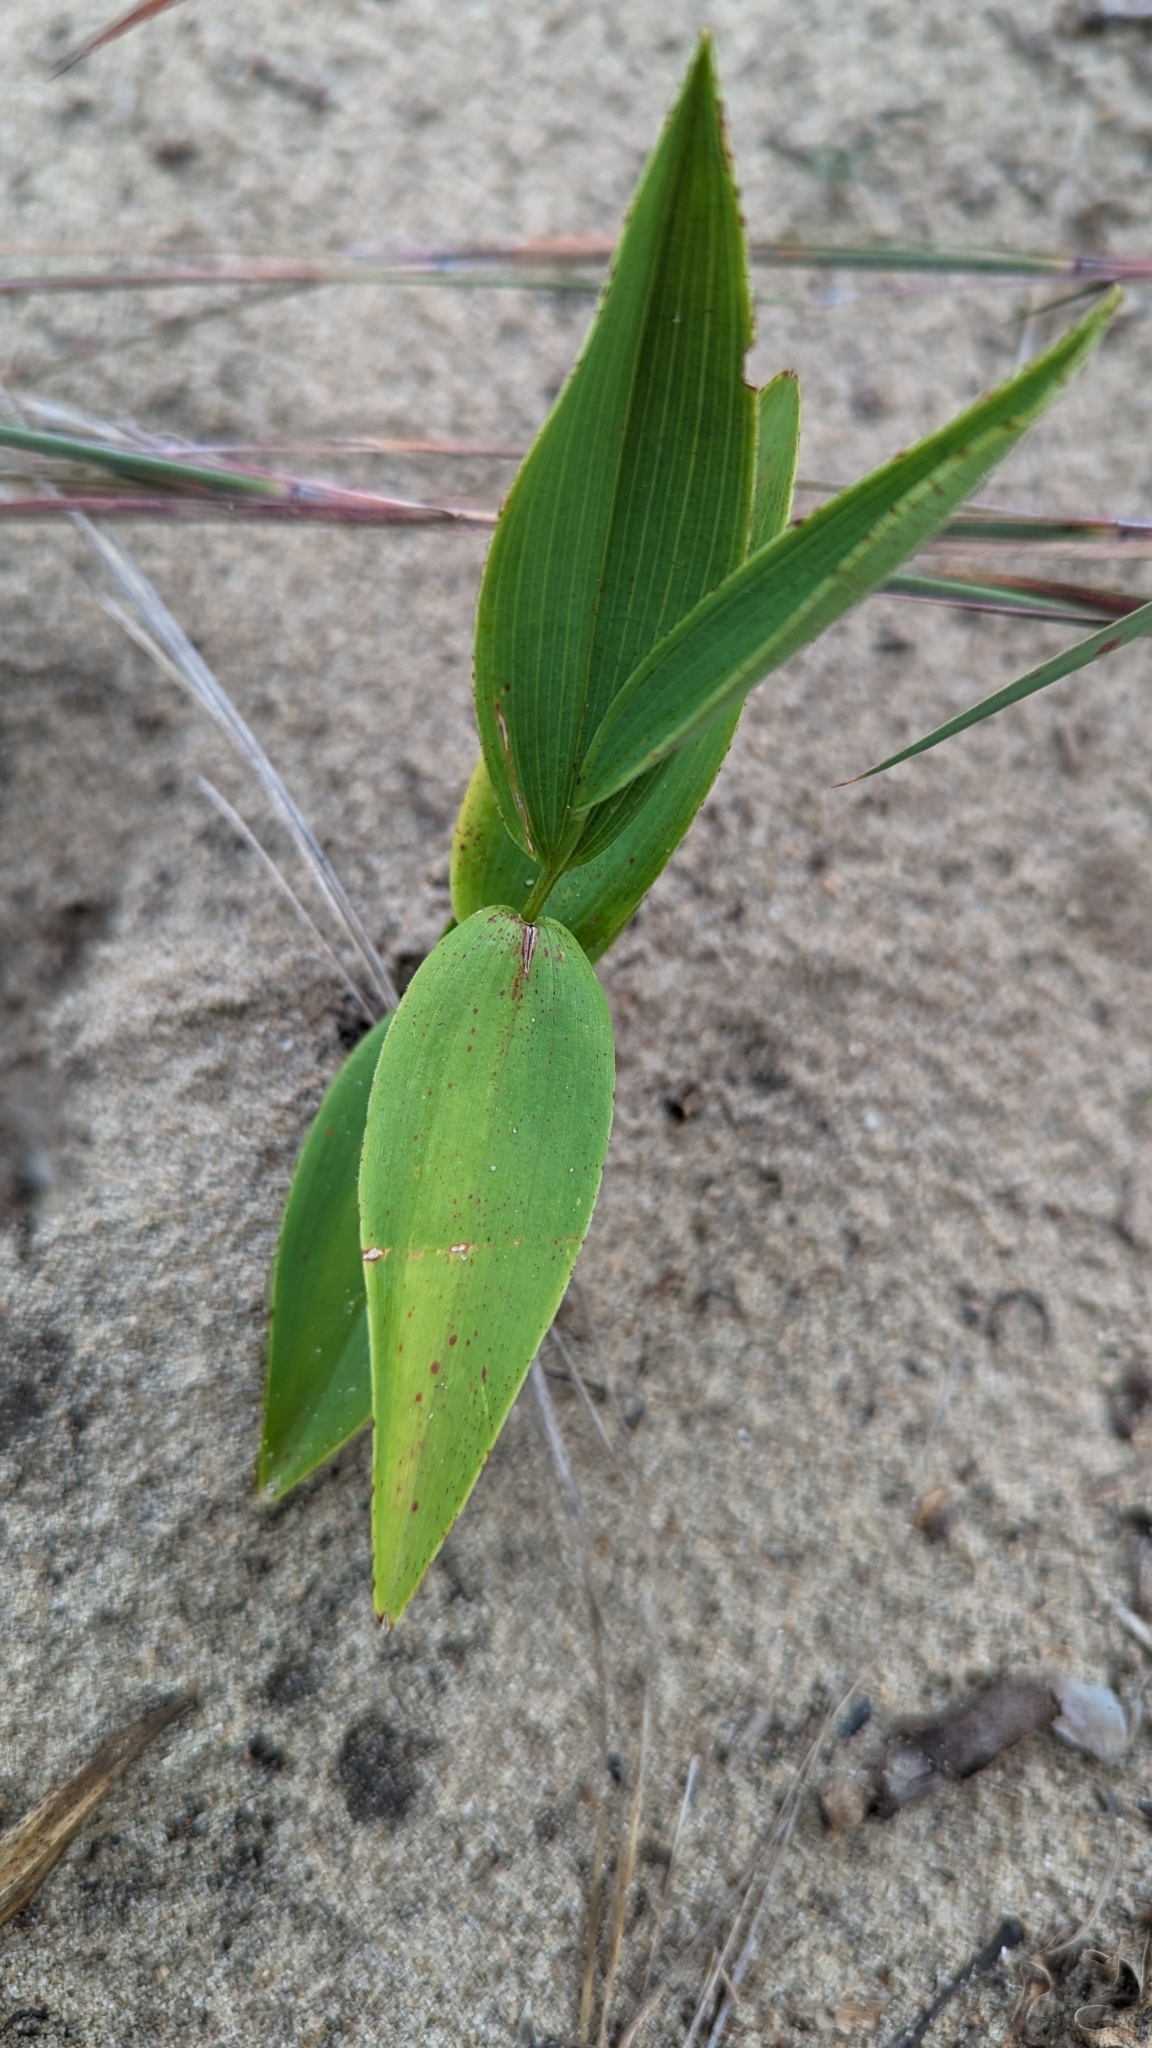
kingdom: Plantae
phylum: Tracheophyta
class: Liliopsida
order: Asparagales
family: Asparagaceae
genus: Maianthemum
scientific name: Maianthemum stellatum
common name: Little false solomon's seal
